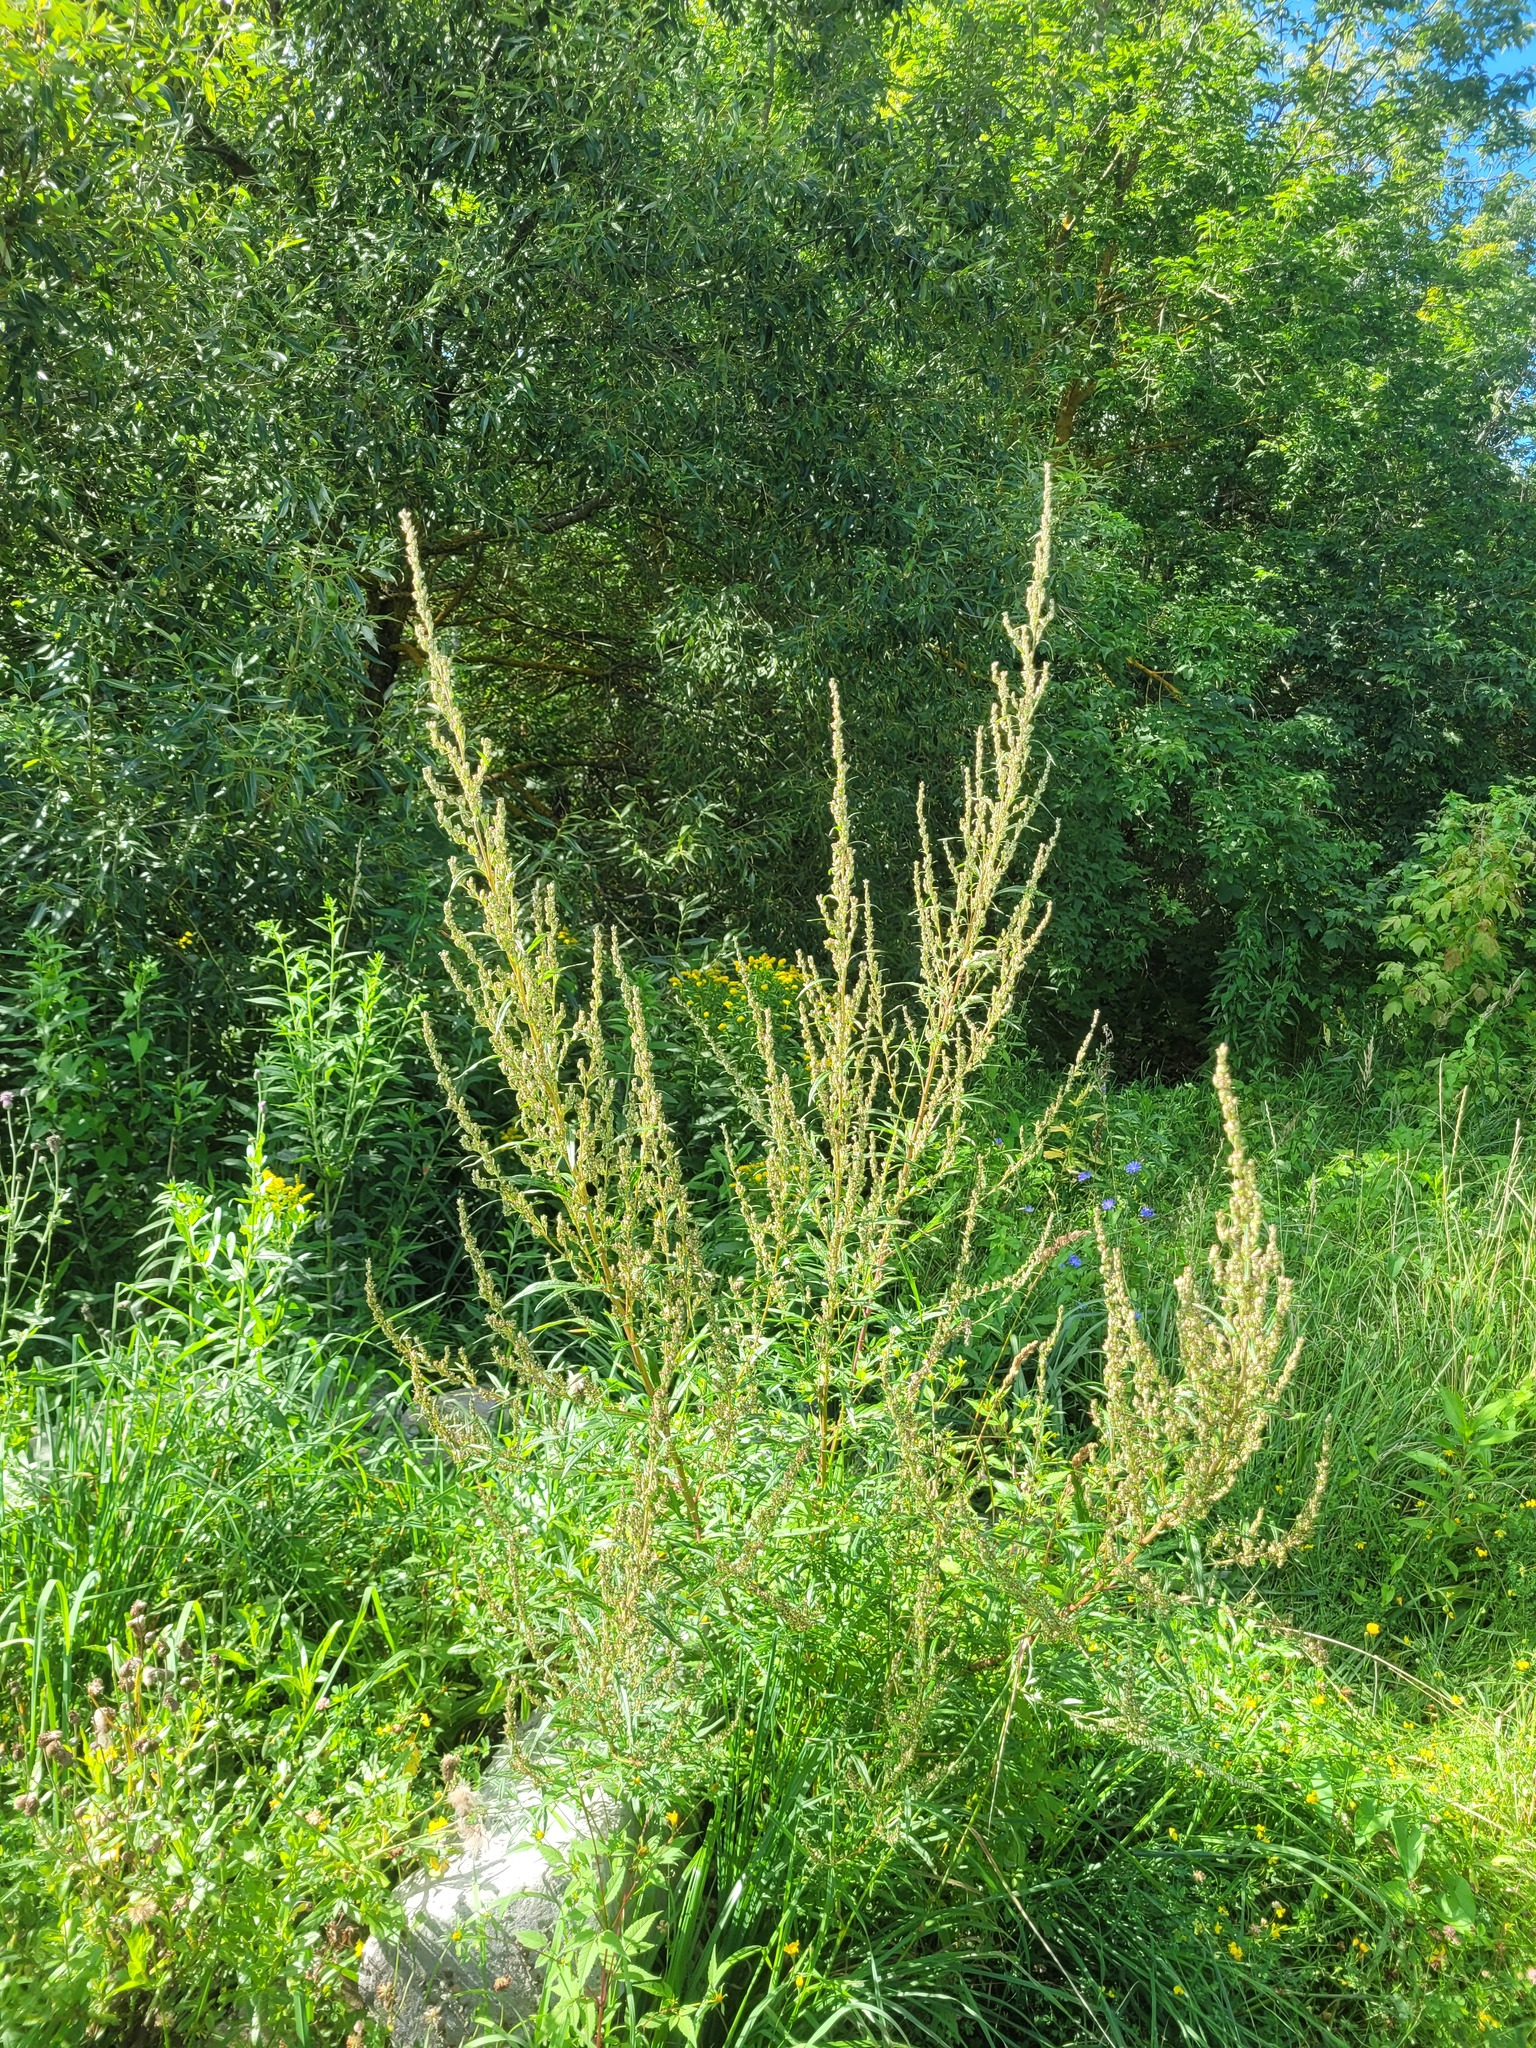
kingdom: Plantae
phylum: Tracheophyta
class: Magnoliopsida
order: Asterales
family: Asteraceae
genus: Artemisia
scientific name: Artemisia vulgaris
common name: Mugwort
